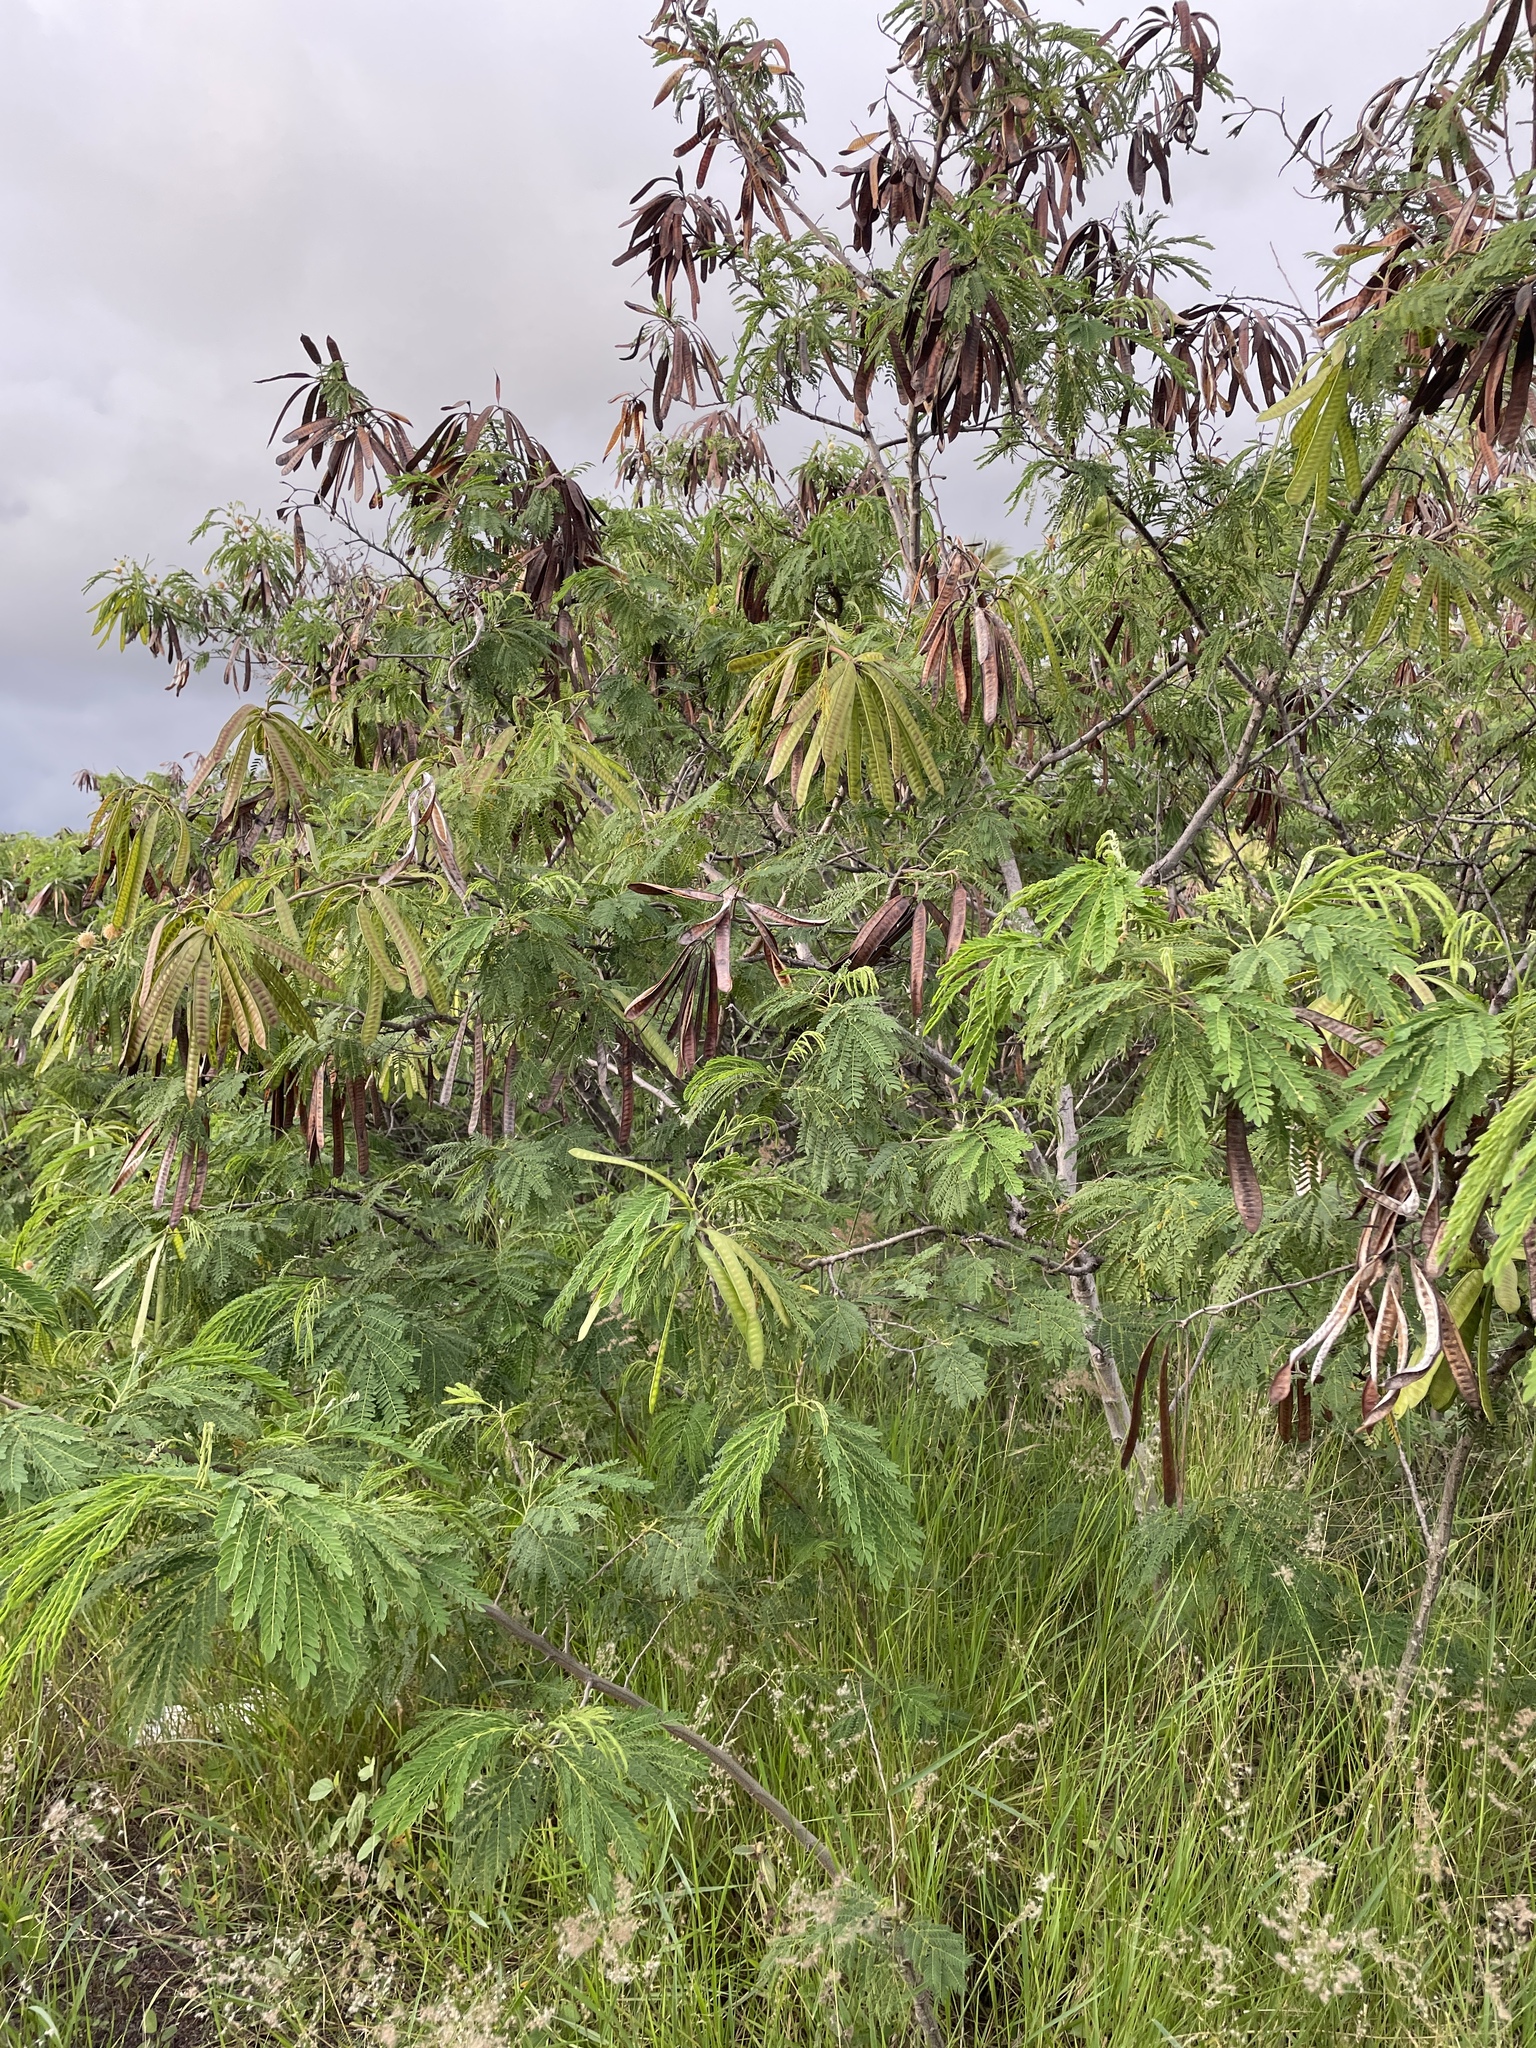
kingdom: Plantae
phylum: Tracheophyta
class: Magnoliopsida
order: Fabales
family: Fabaceae
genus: Leucaena
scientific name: Leucaena leucocephala
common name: White leadtree
